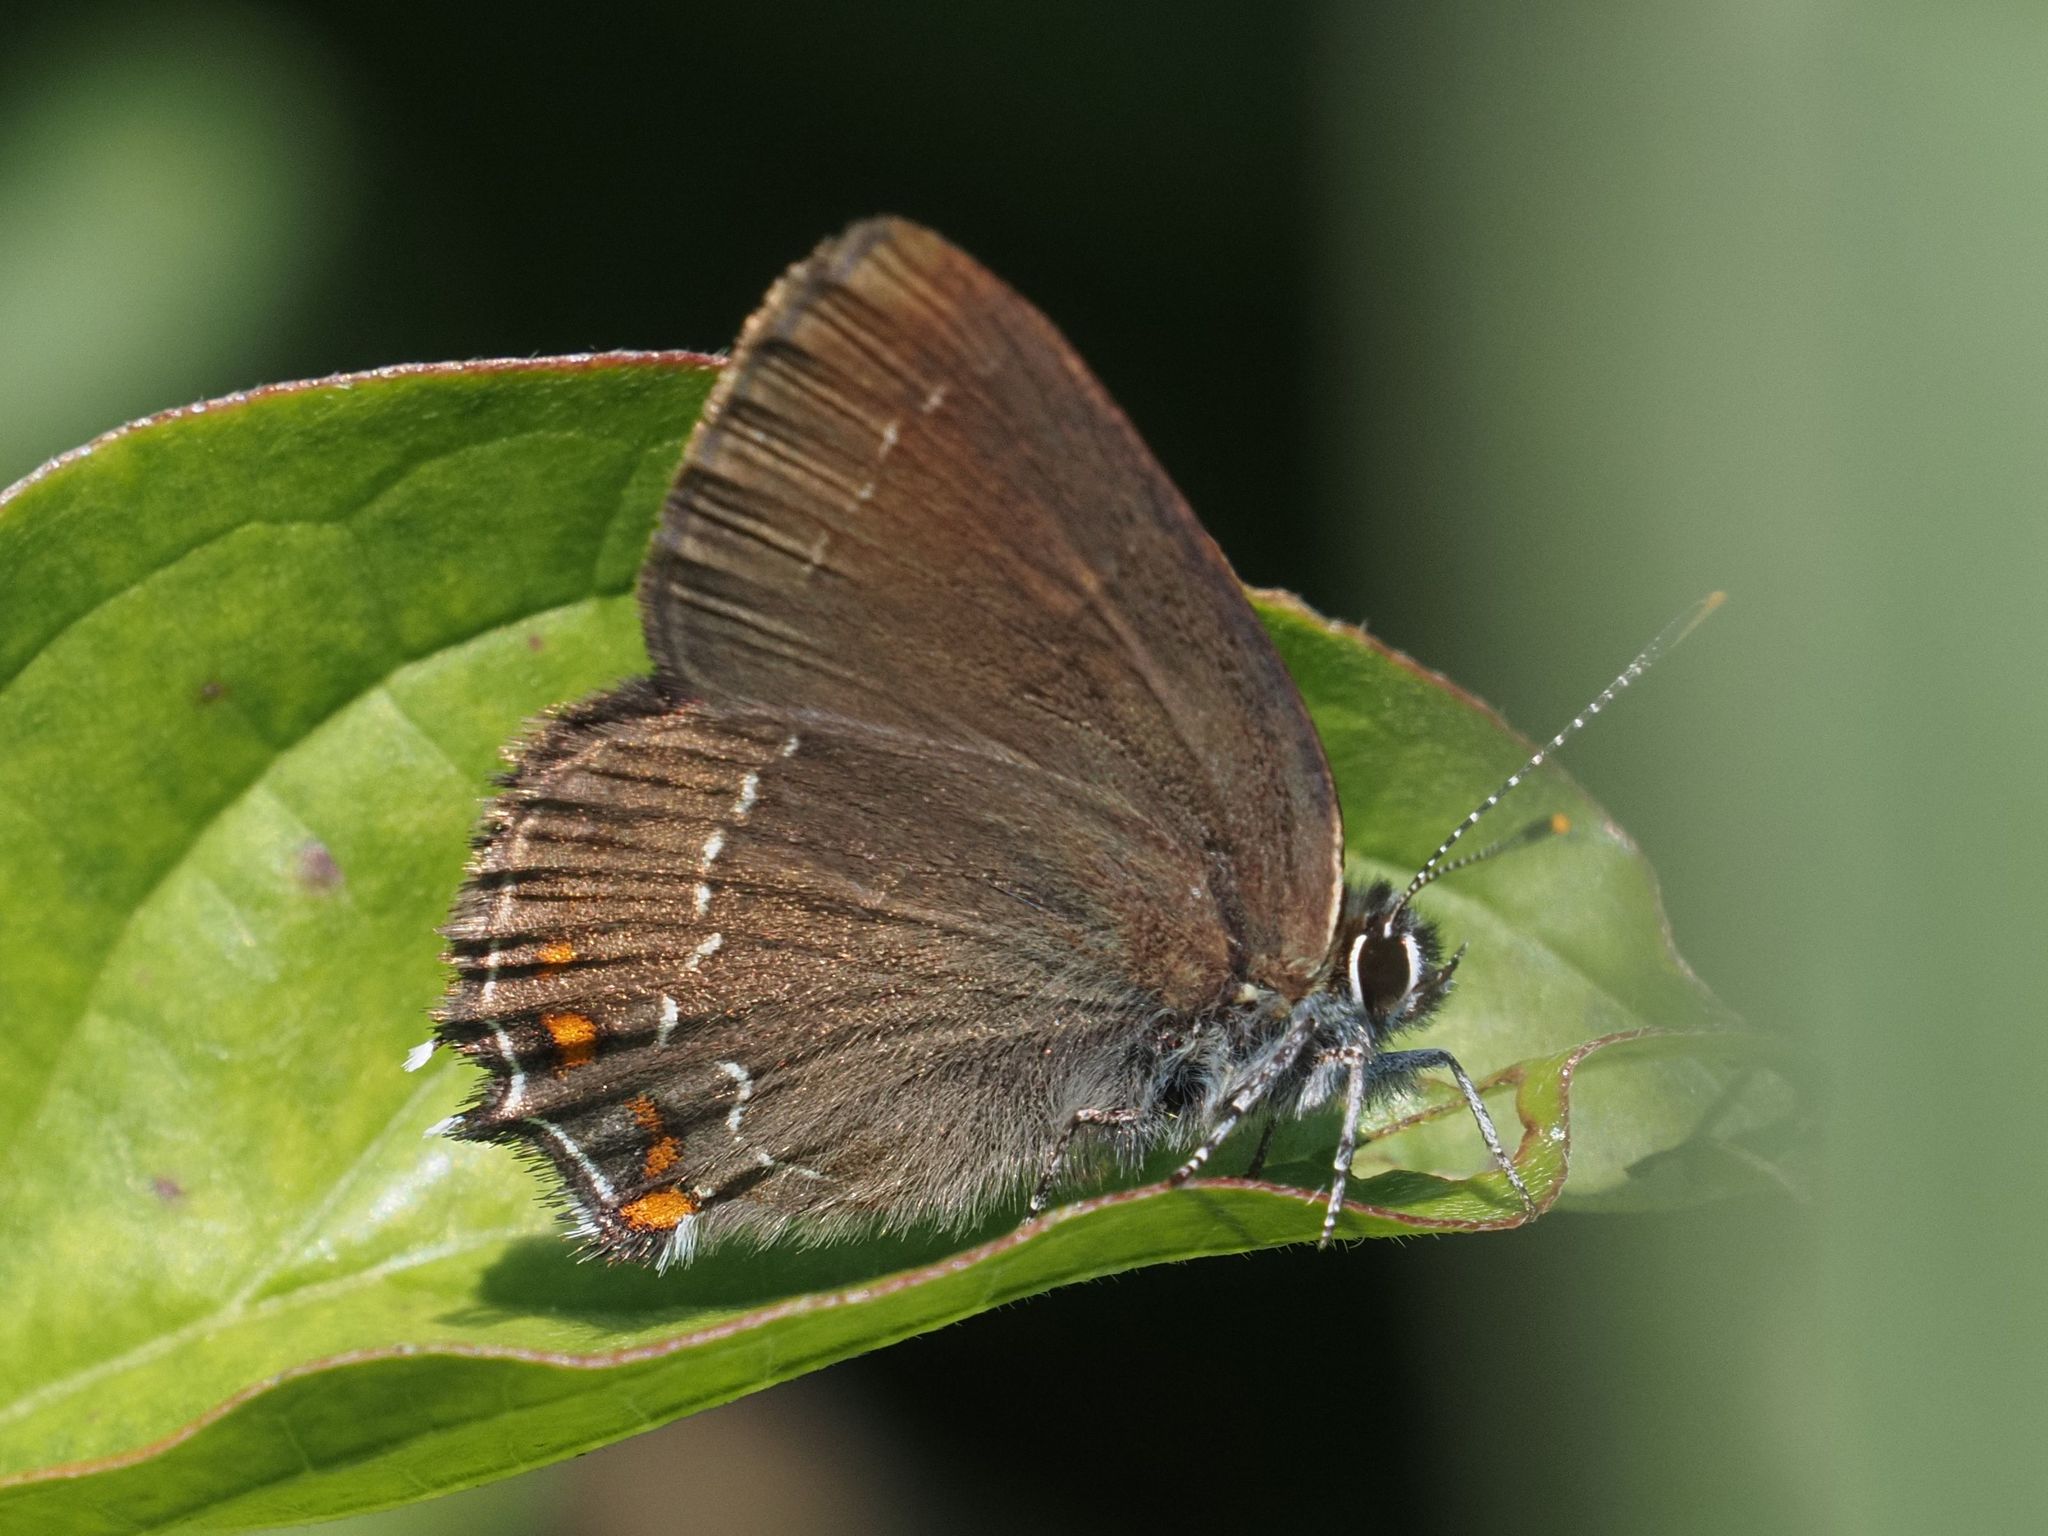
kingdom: Animalia
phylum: Arthropoda
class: Insecta
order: Lepidoptera
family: Lycaenidae
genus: Nordmannia
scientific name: Nordmannia ilicis
